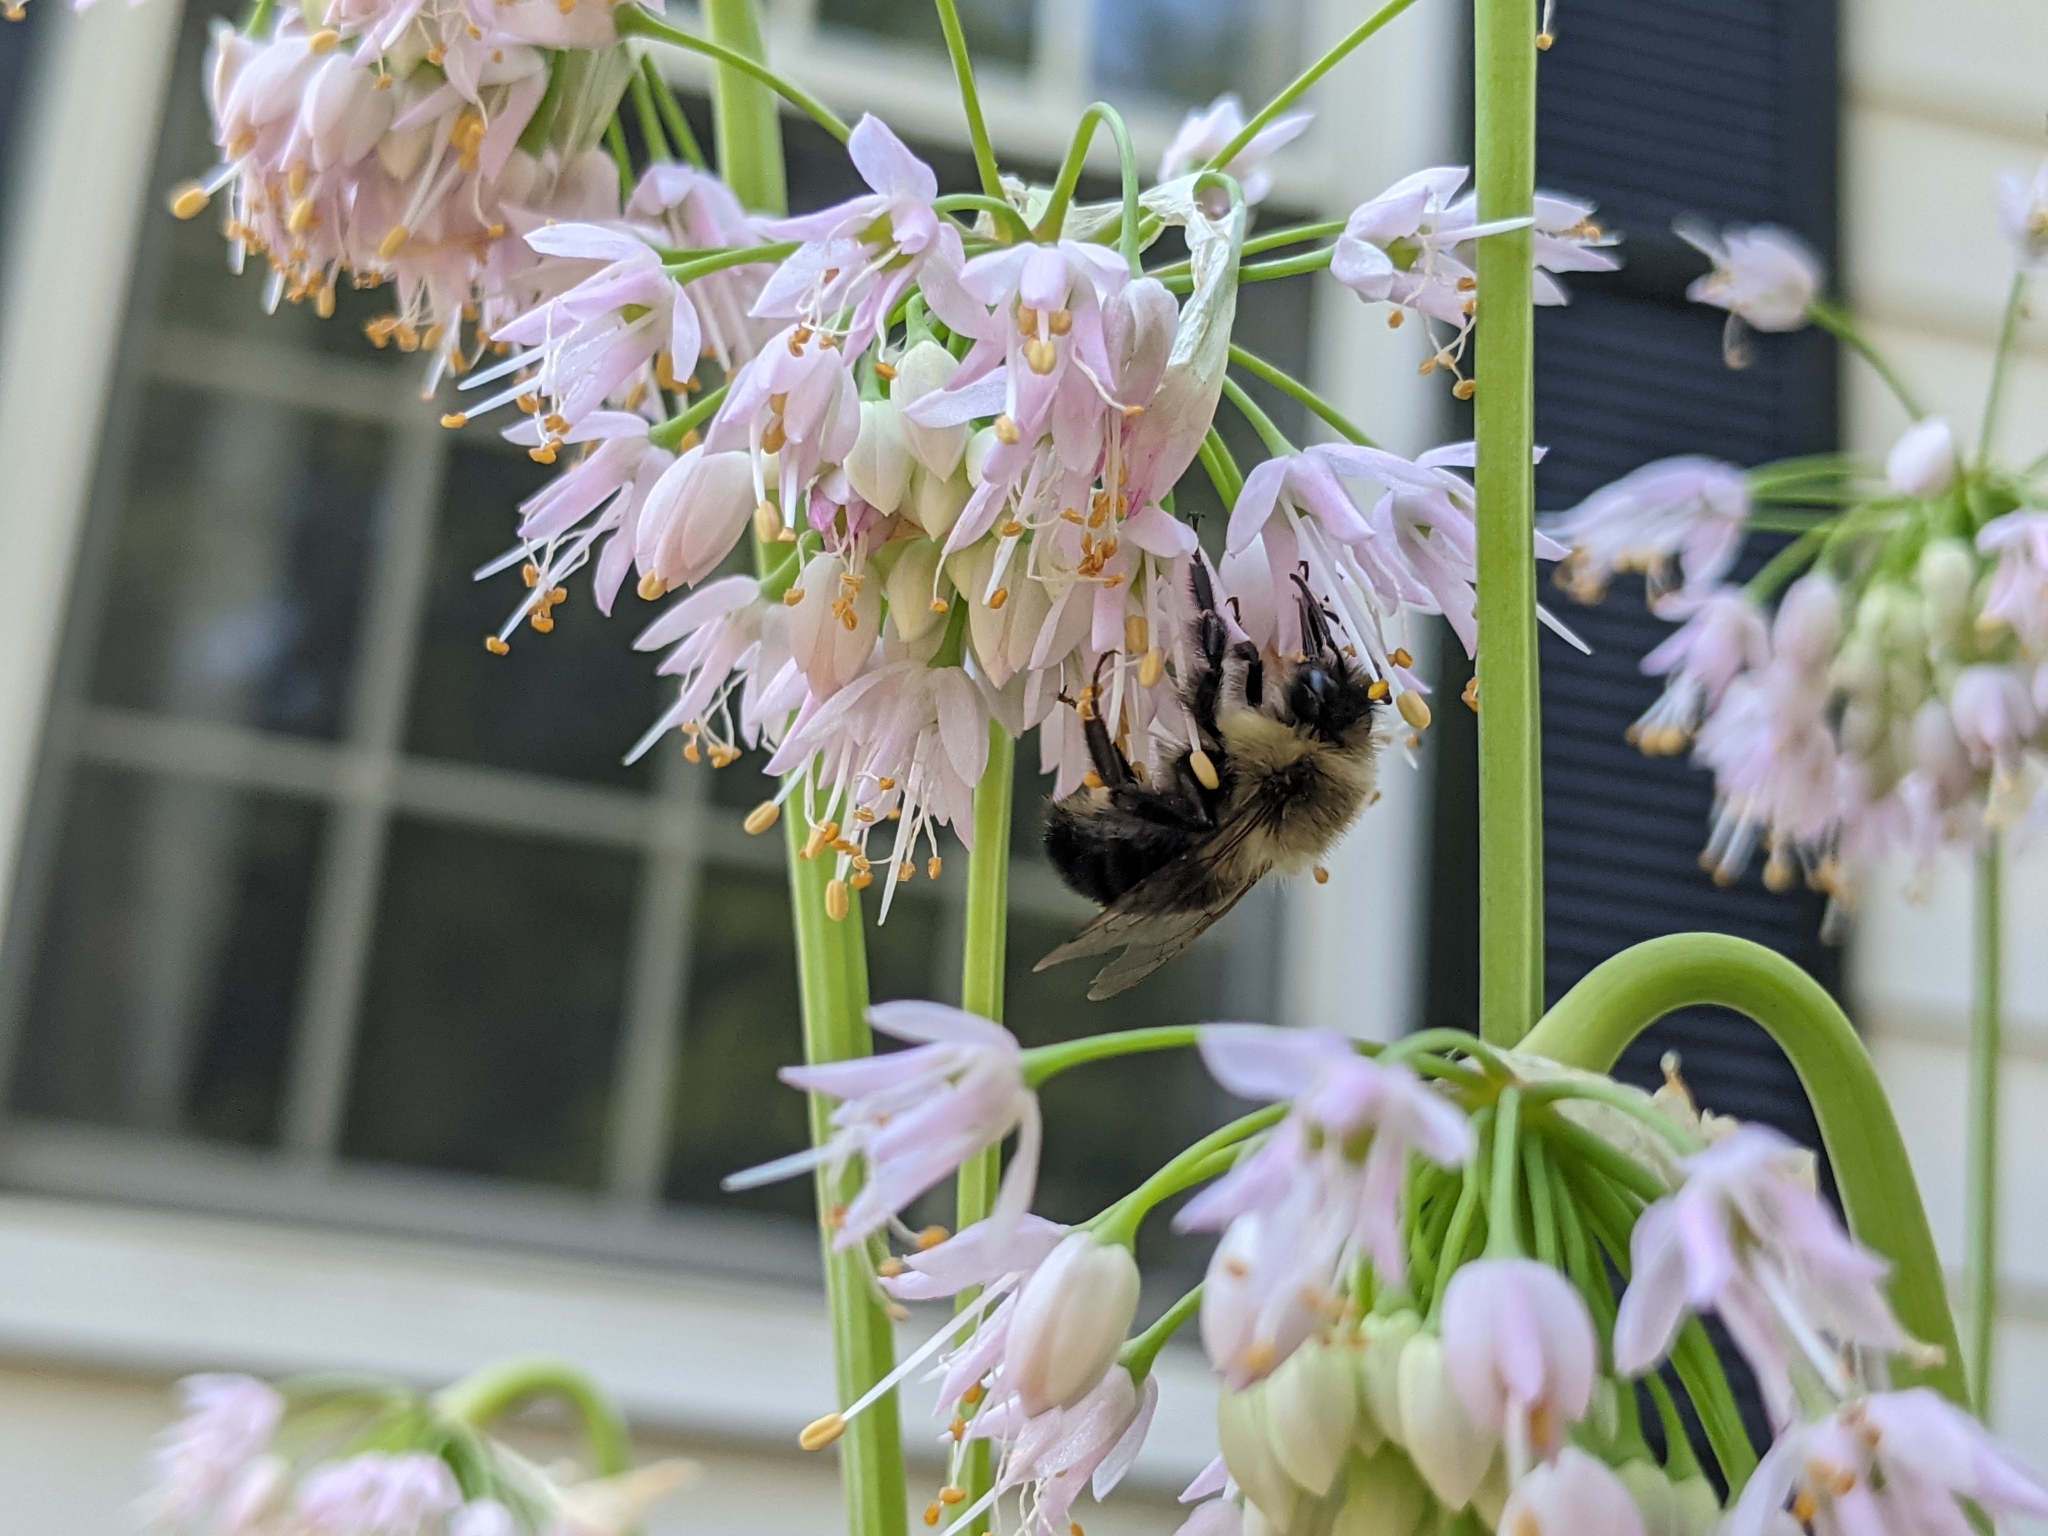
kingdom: Animalia
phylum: Arthropoda
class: Insecta
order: Hymenoptera
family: Apidae
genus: Bombus
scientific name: Bombus impatiens
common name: Common eastern bumble bee
